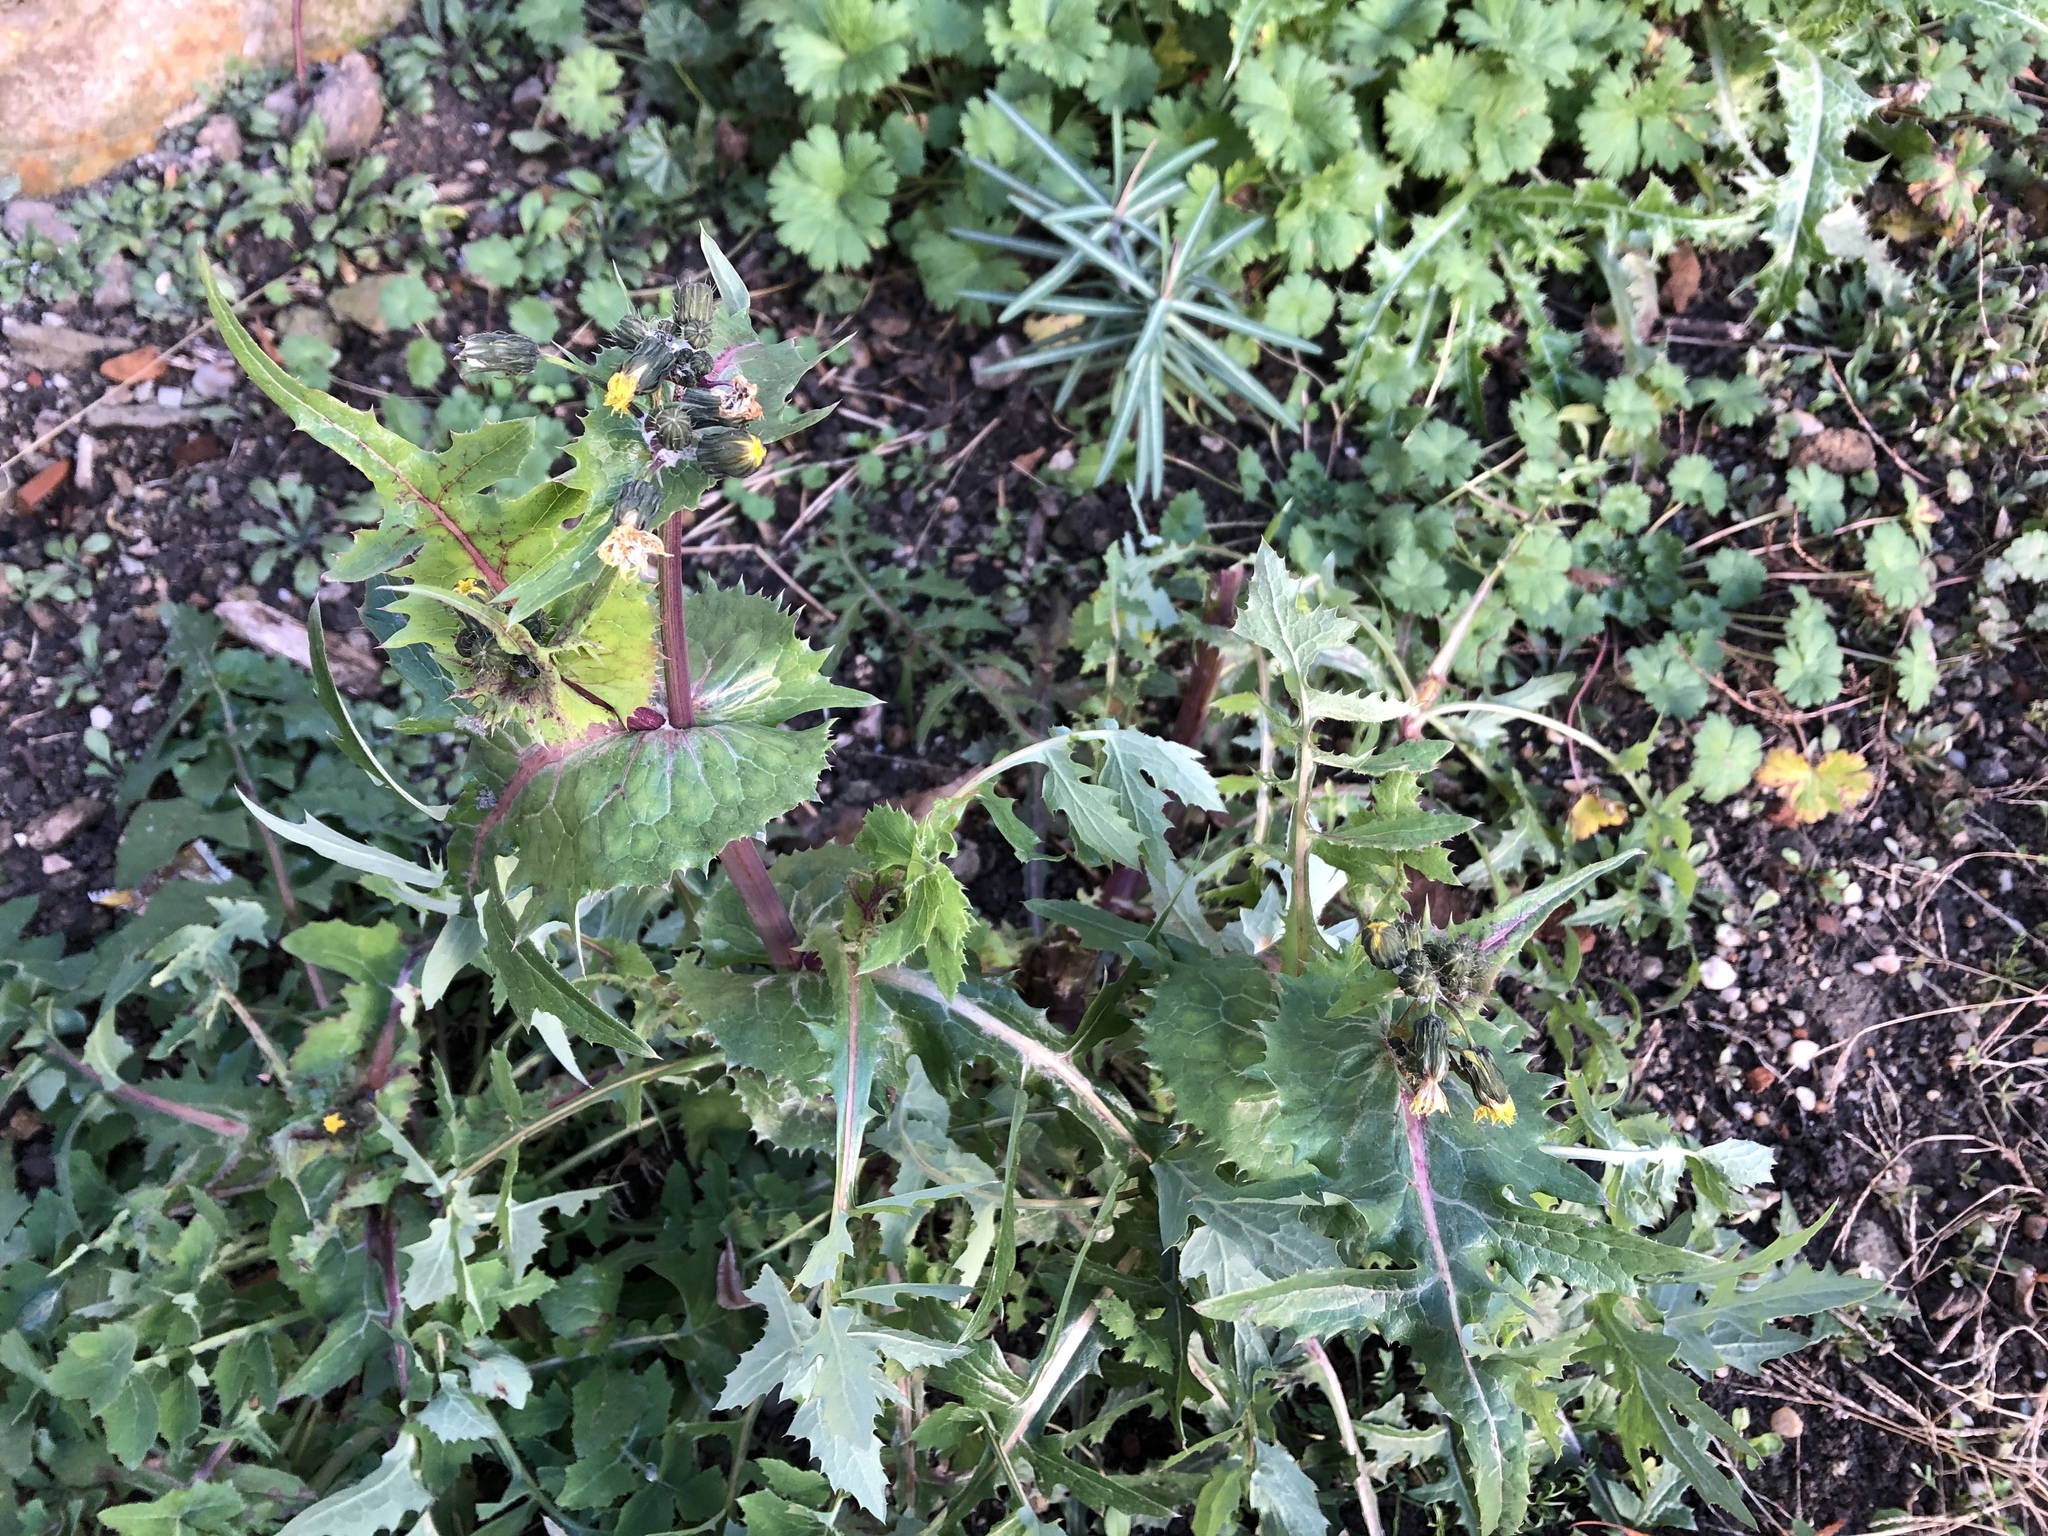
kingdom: Plantae
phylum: Tracheophyta
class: Magnoliopsida
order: Asterales
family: Asteraceae
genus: Sonchus
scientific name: Sonchus oleraceus
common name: Common sowthistle
